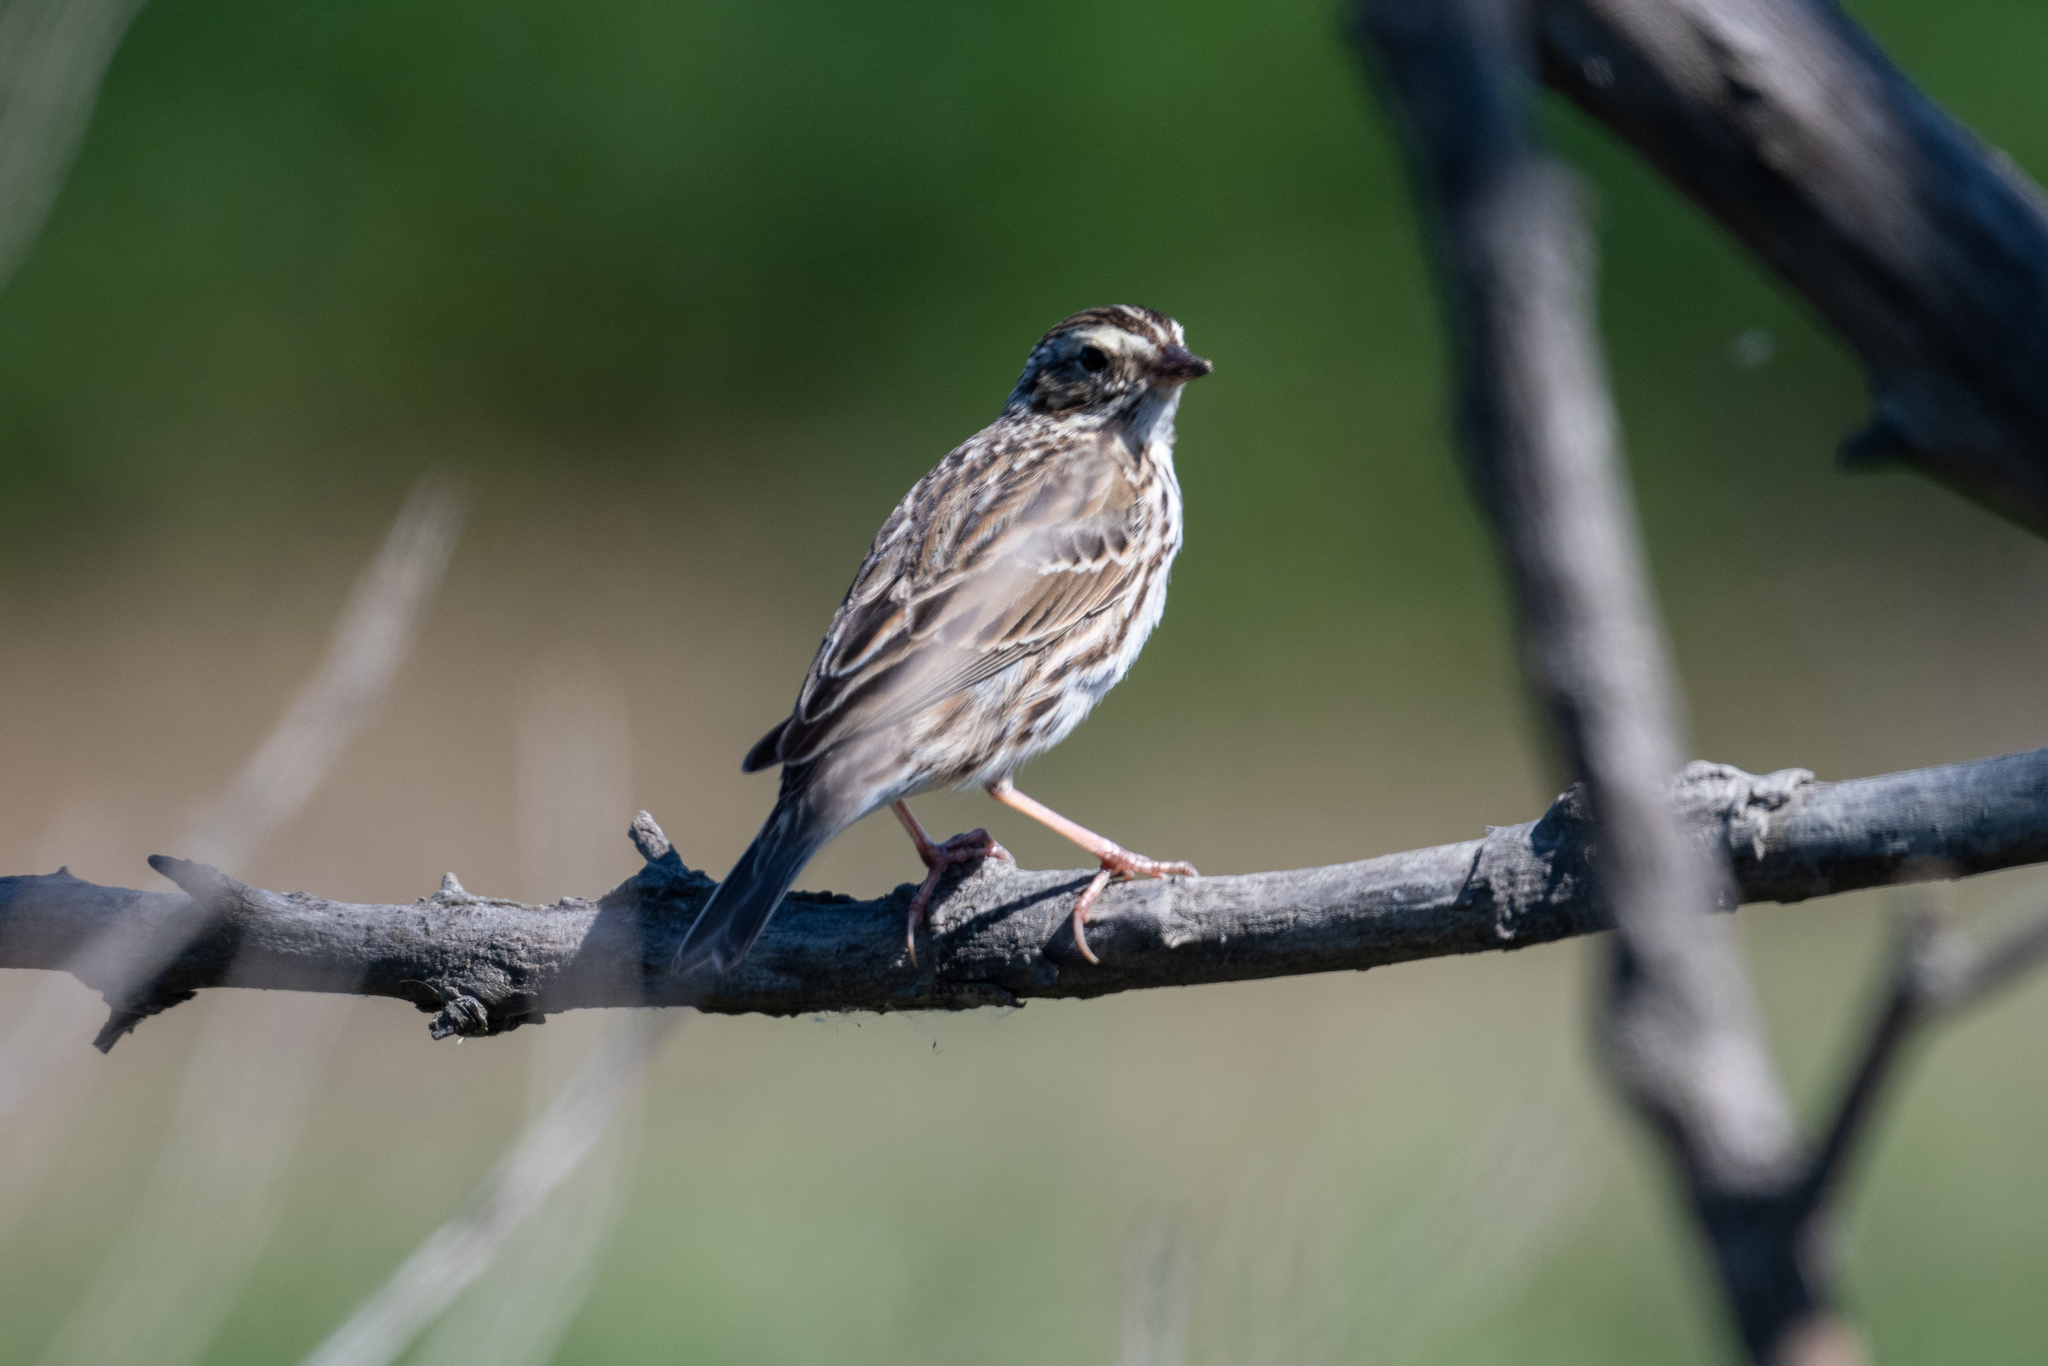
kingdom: Animalia
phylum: Chordata
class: Aves
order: Passeriformes
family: Passerellidae
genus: Passerculus
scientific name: Passerculus sandwichensis
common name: Savannah sparrow
